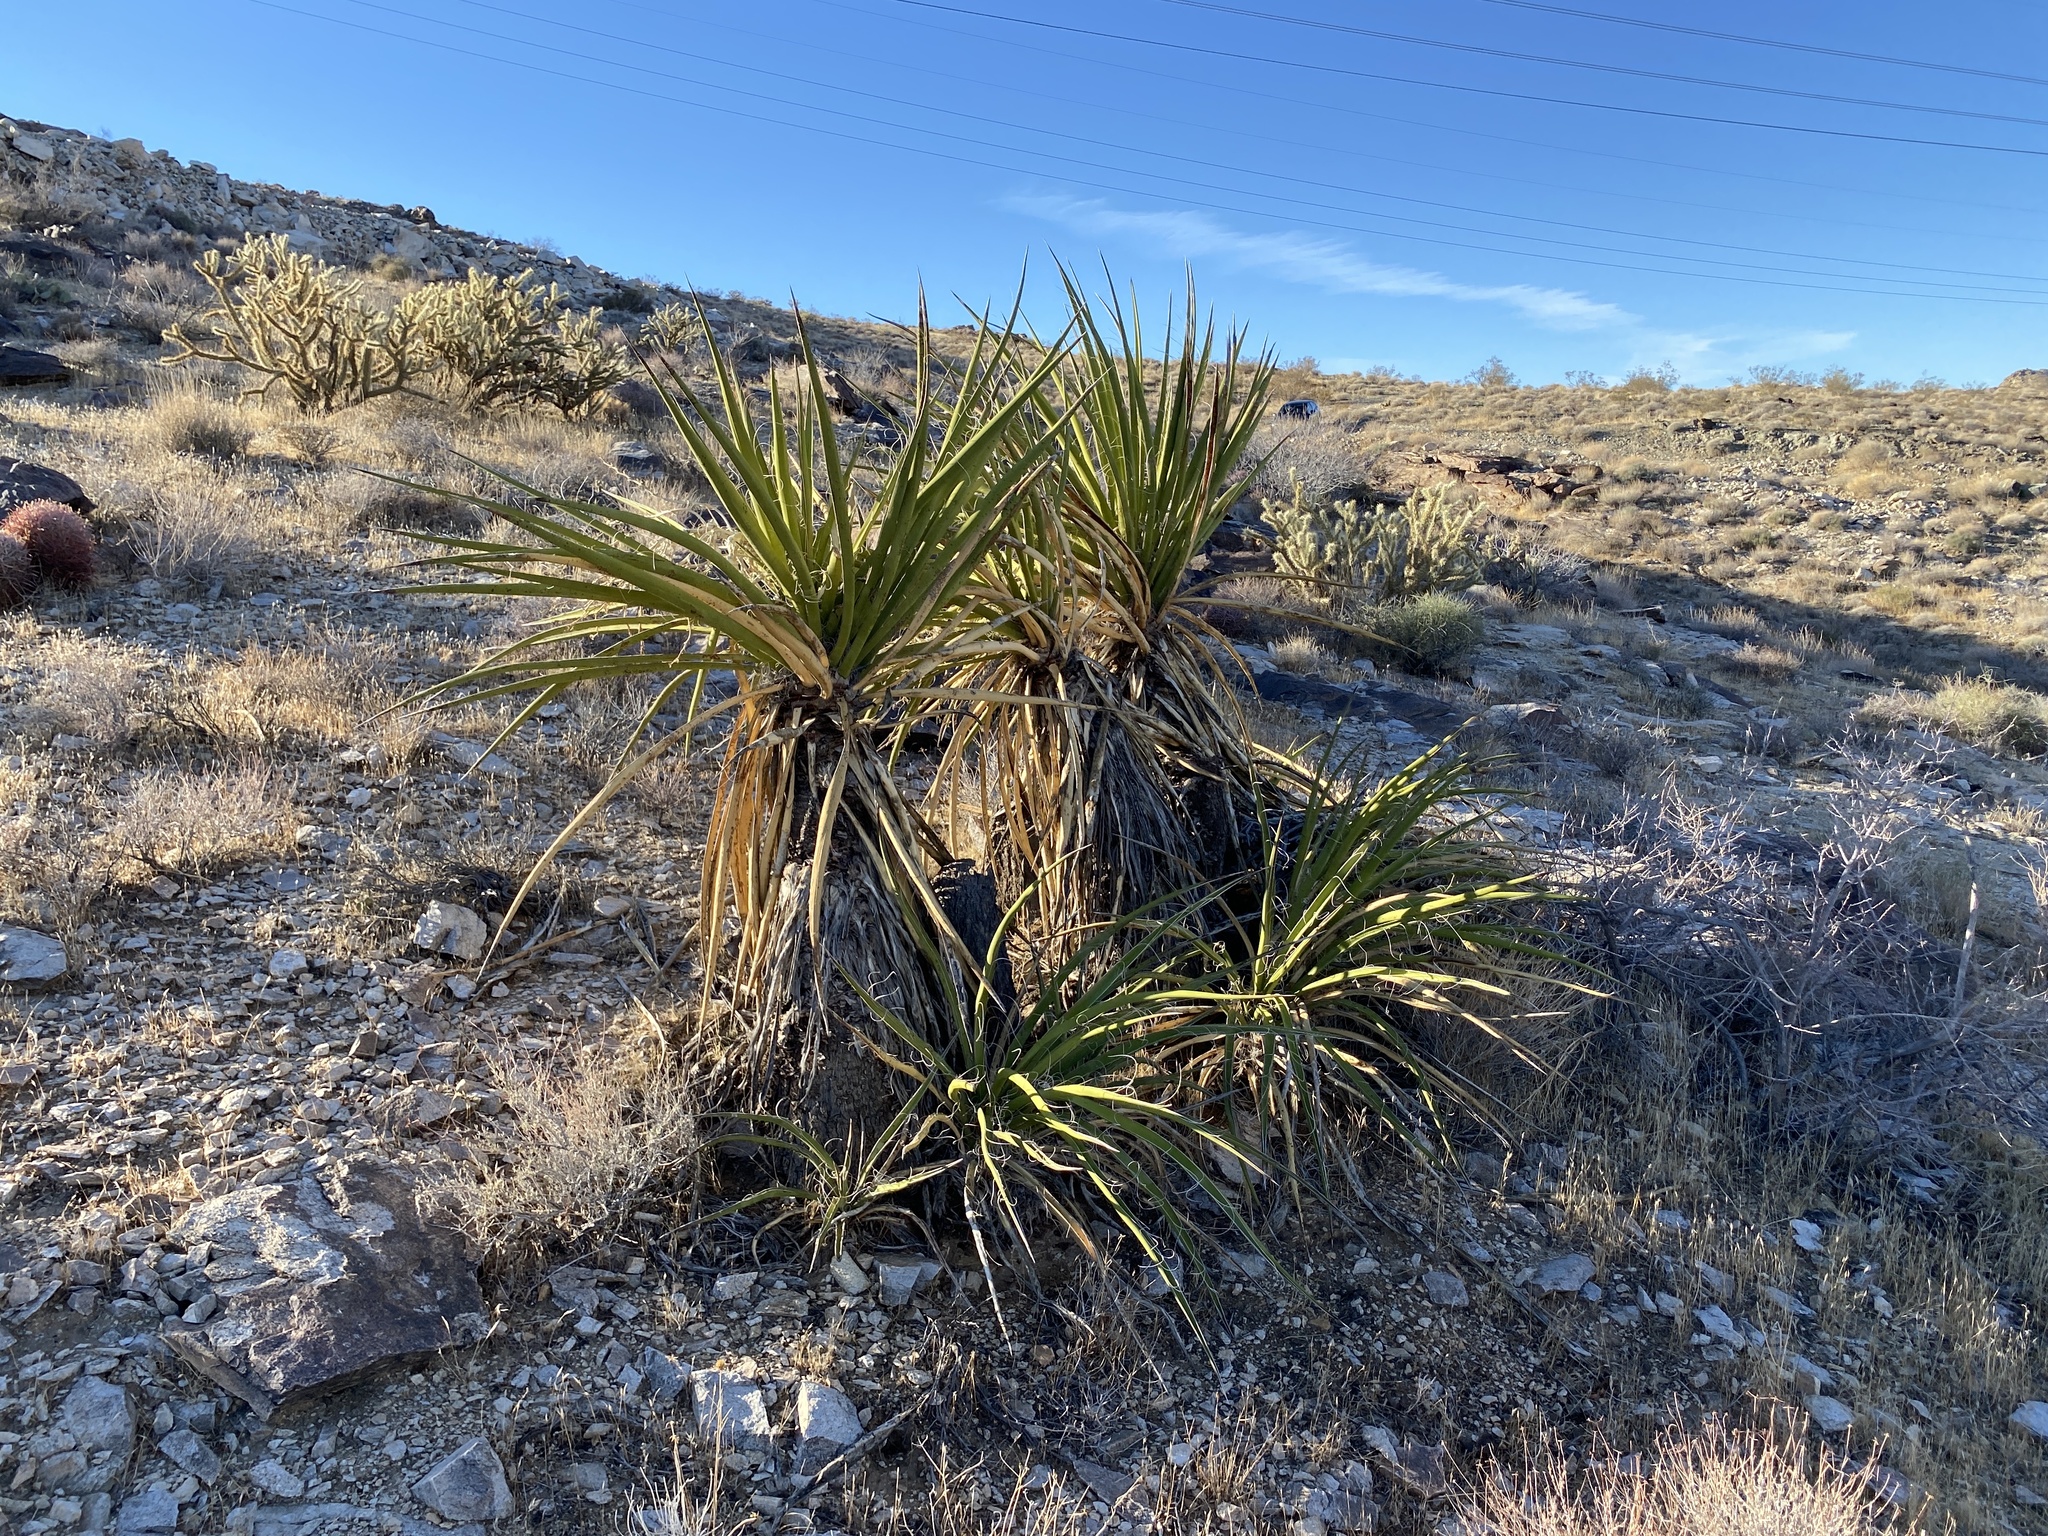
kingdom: Plantae
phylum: Tracheophyta
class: Liliopsida
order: Asparagales
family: Asparagaceae
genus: Yucca
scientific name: Yucca schidigera
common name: Mojave yucca
